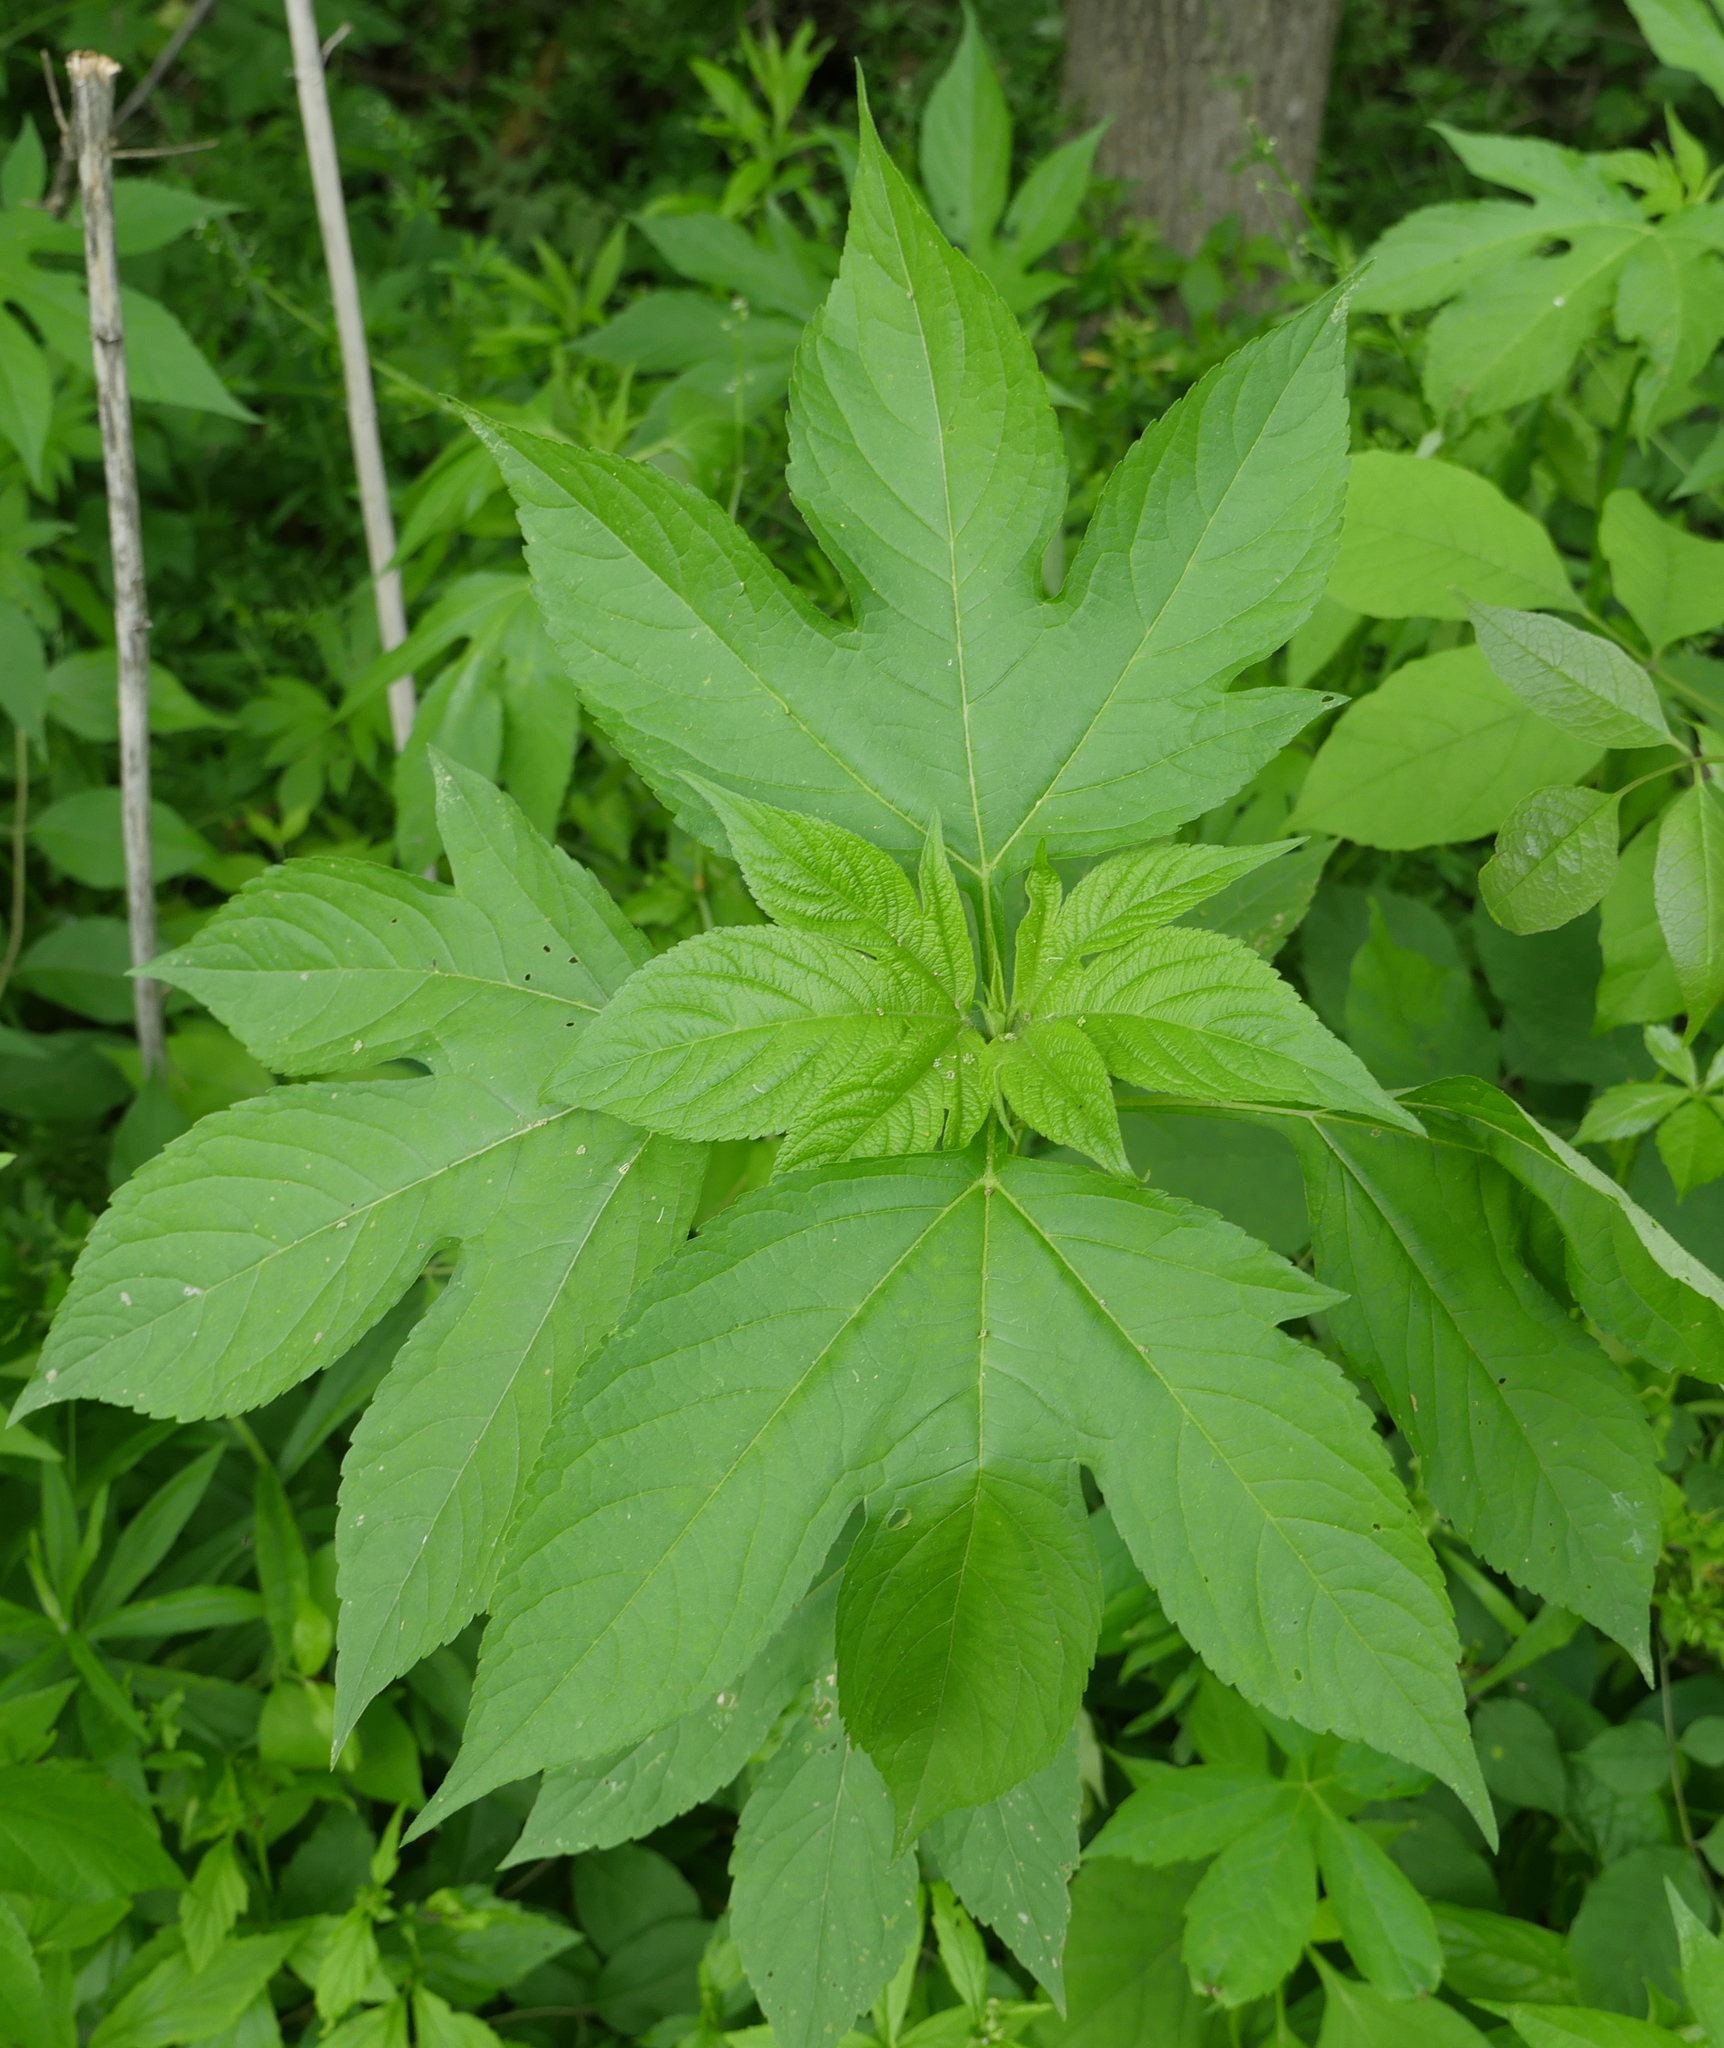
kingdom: Plantae
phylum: Tracheophyta
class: Magnoliopsida
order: Asterales
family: Asteraceae
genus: Ambrosia
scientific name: Ambrosia trifida
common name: Giant ragweed
